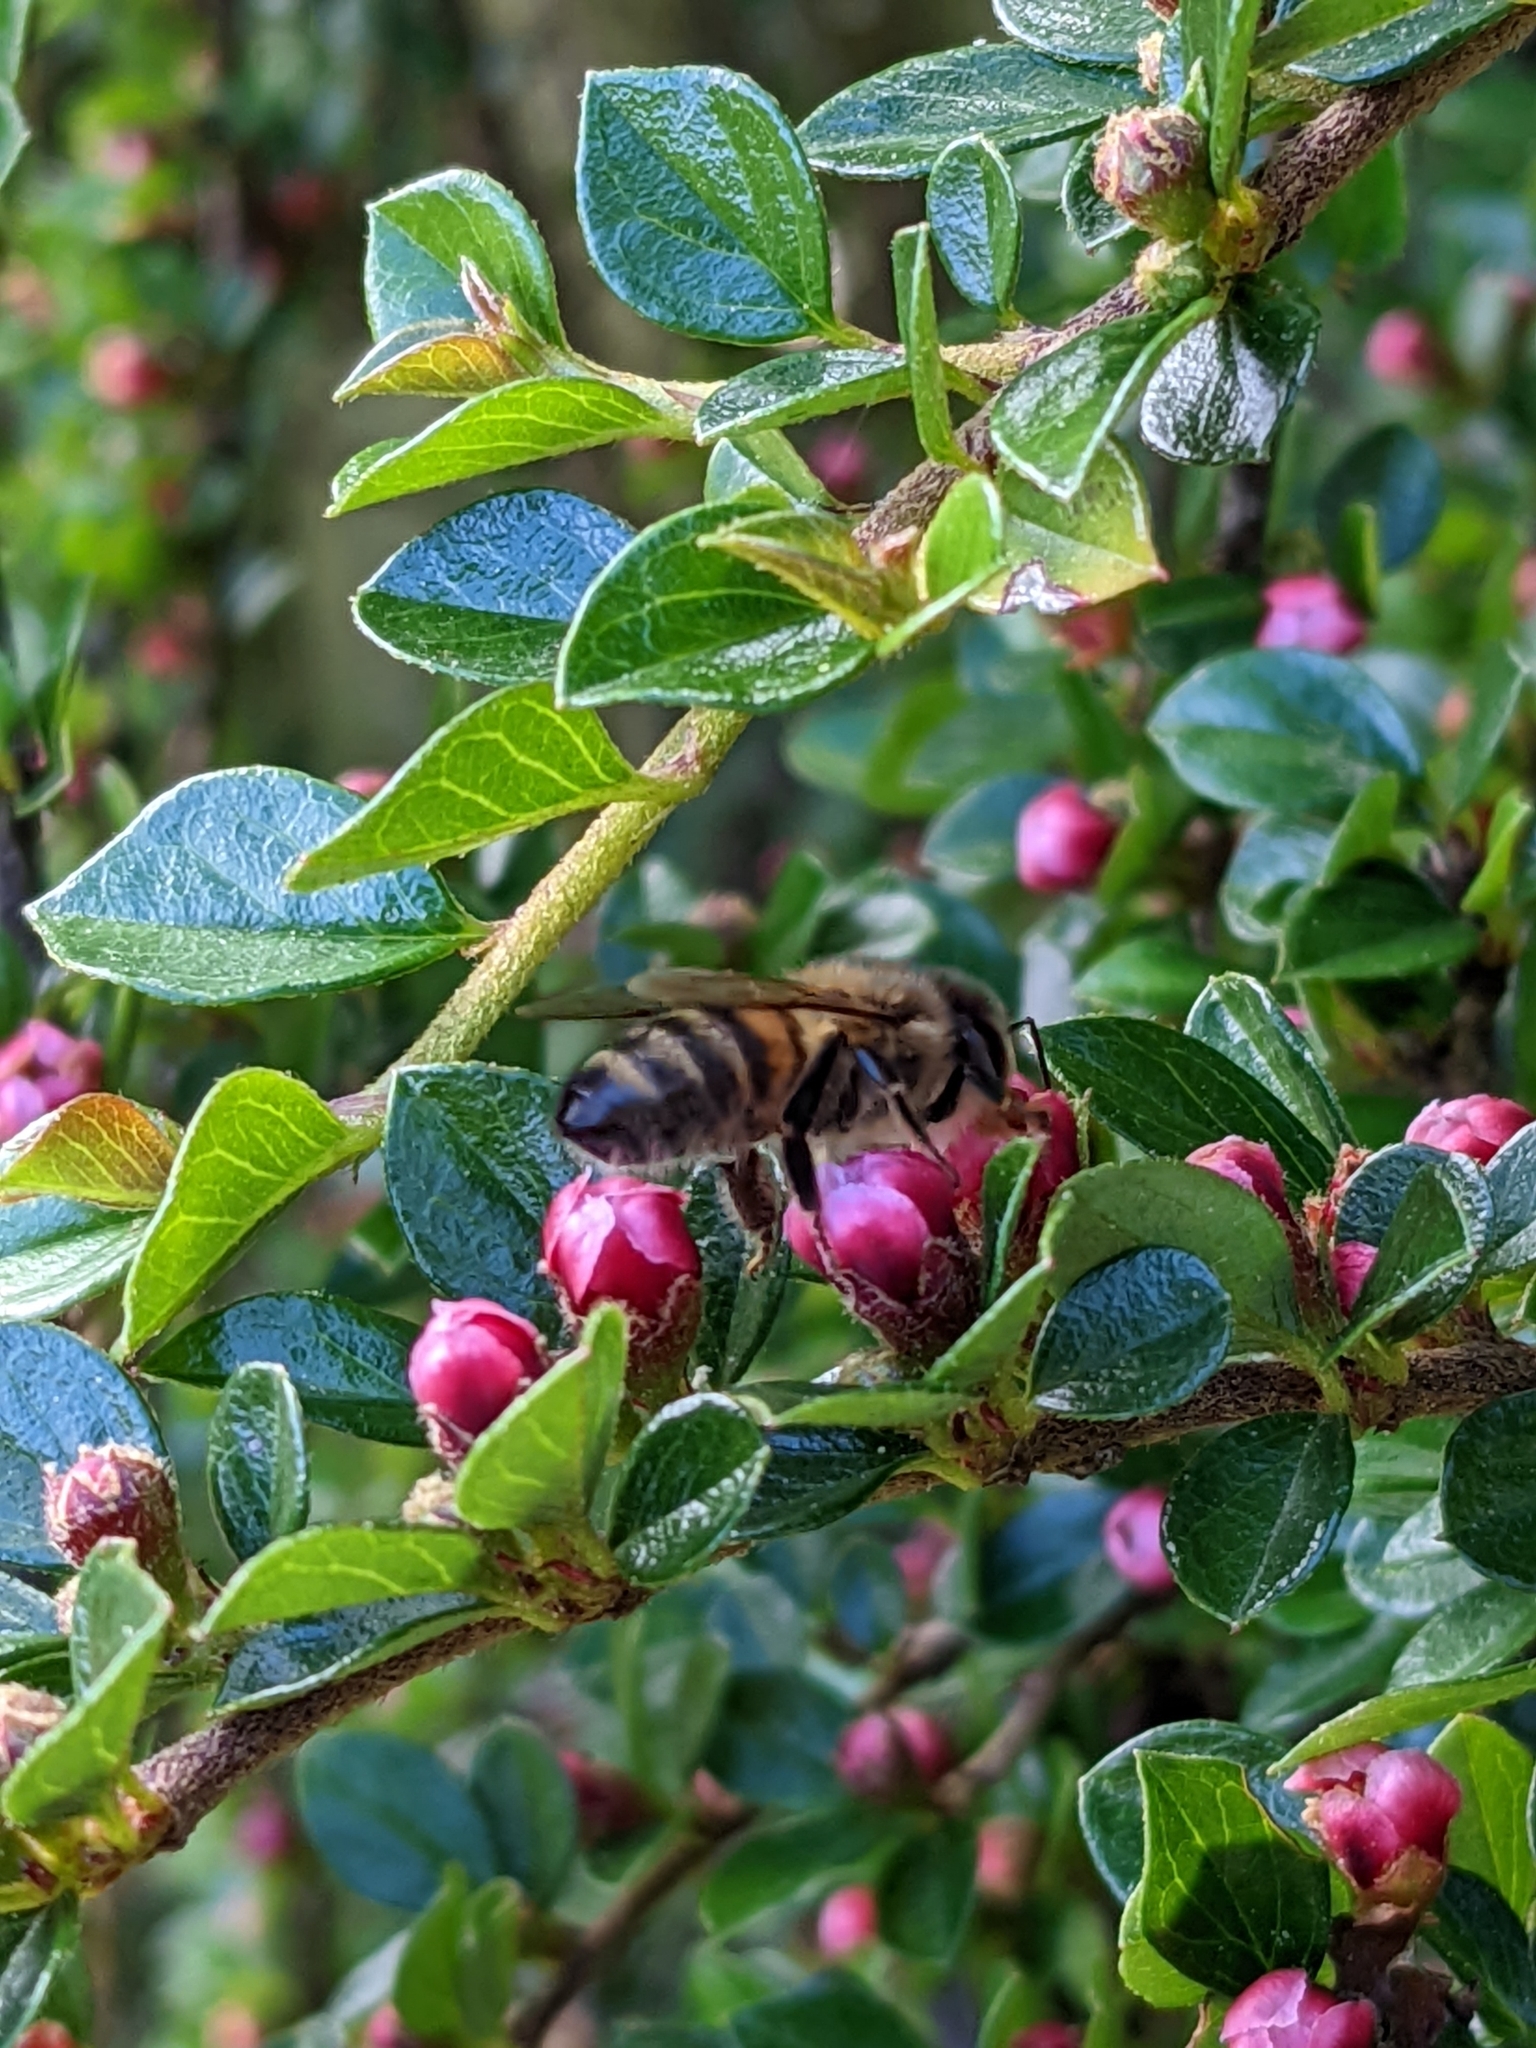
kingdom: Animalia
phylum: Arthropoda
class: Insecta
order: Hymenoptera
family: Apidae
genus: Apis
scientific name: Apis mellifera
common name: Honey bee
